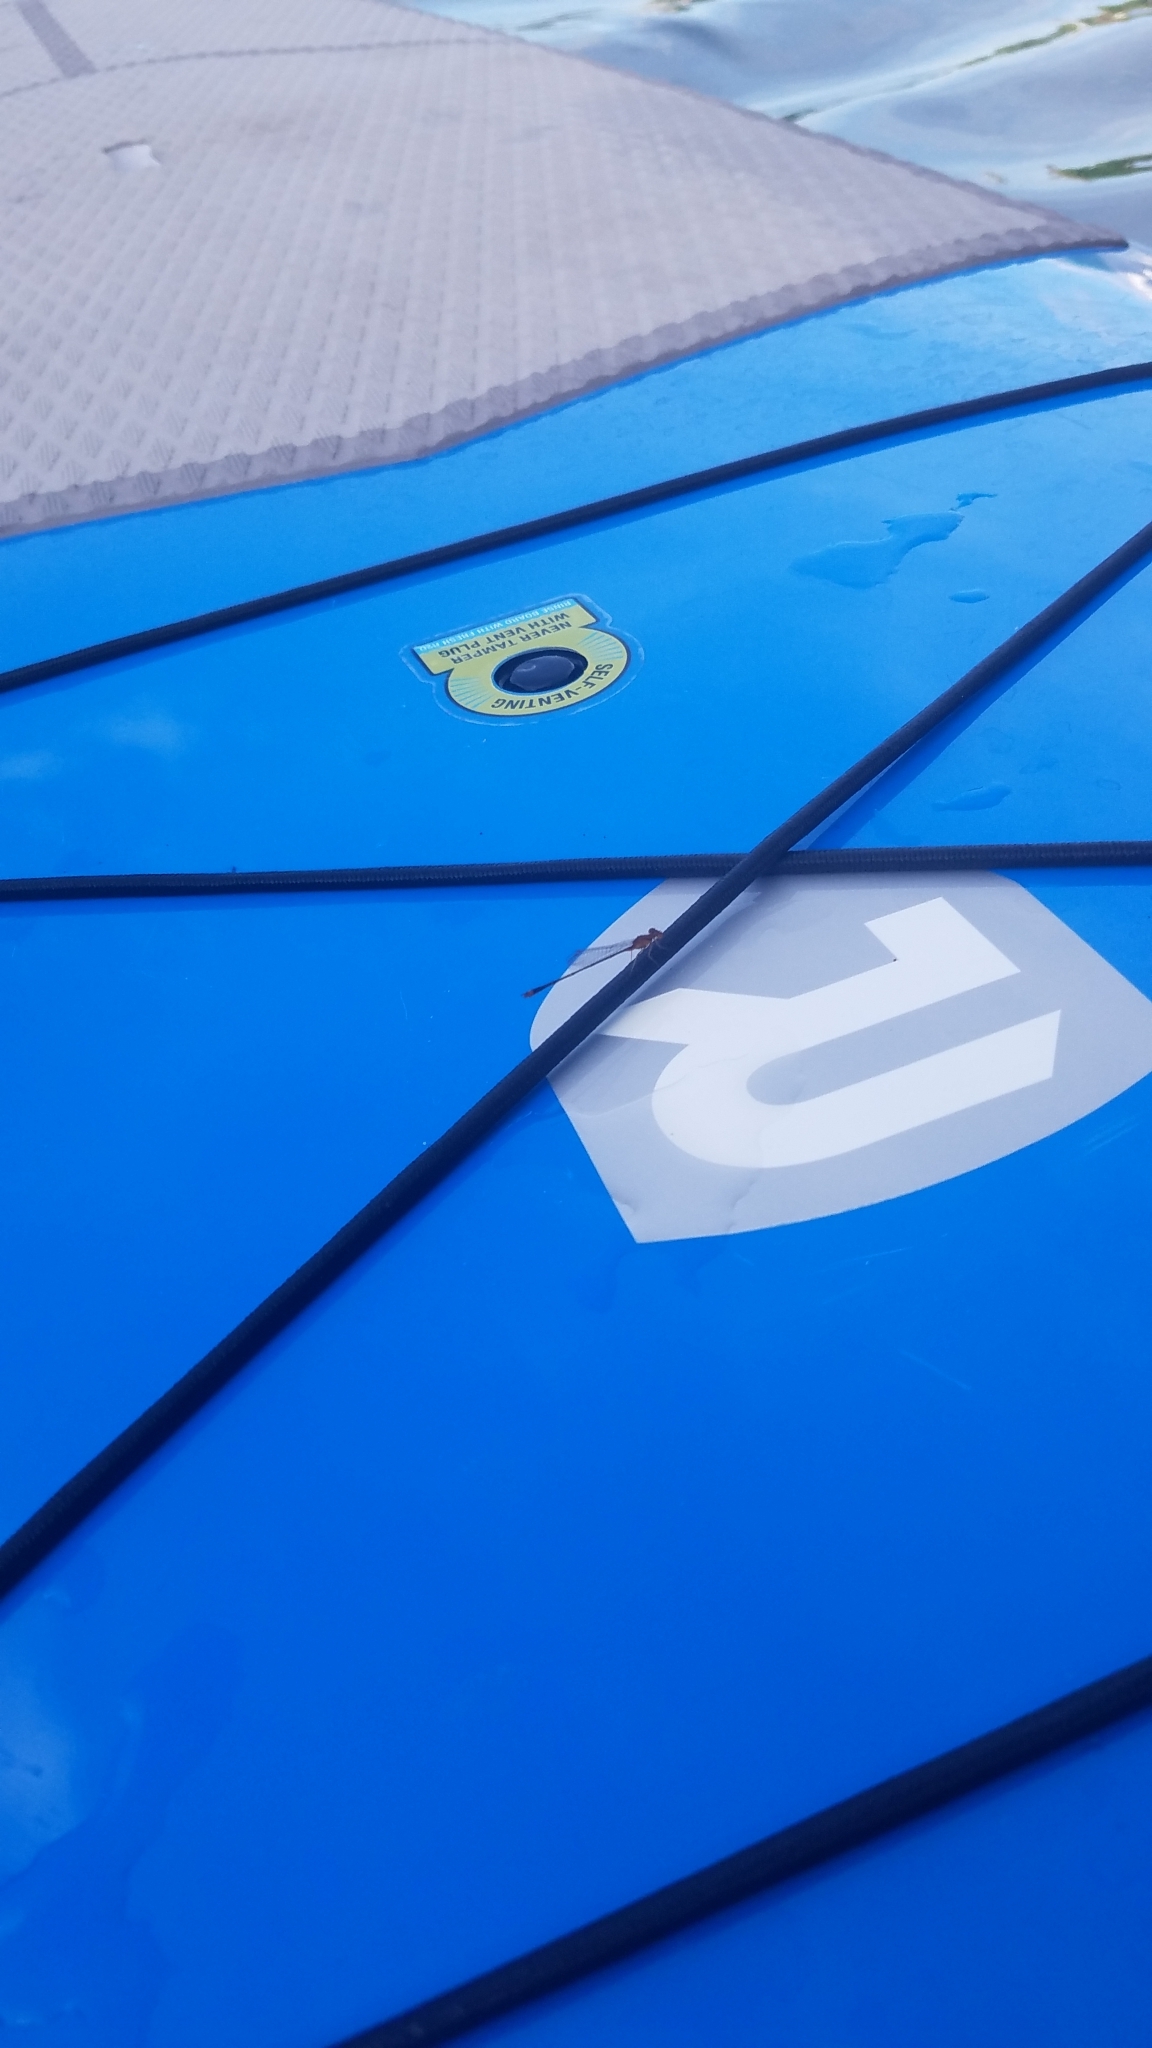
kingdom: Animalia
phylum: Arthropoda
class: Insecta
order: Odonata
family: Coenagrionidae
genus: Enallagma
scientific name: Enallagma signatum
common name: Orange bluet
